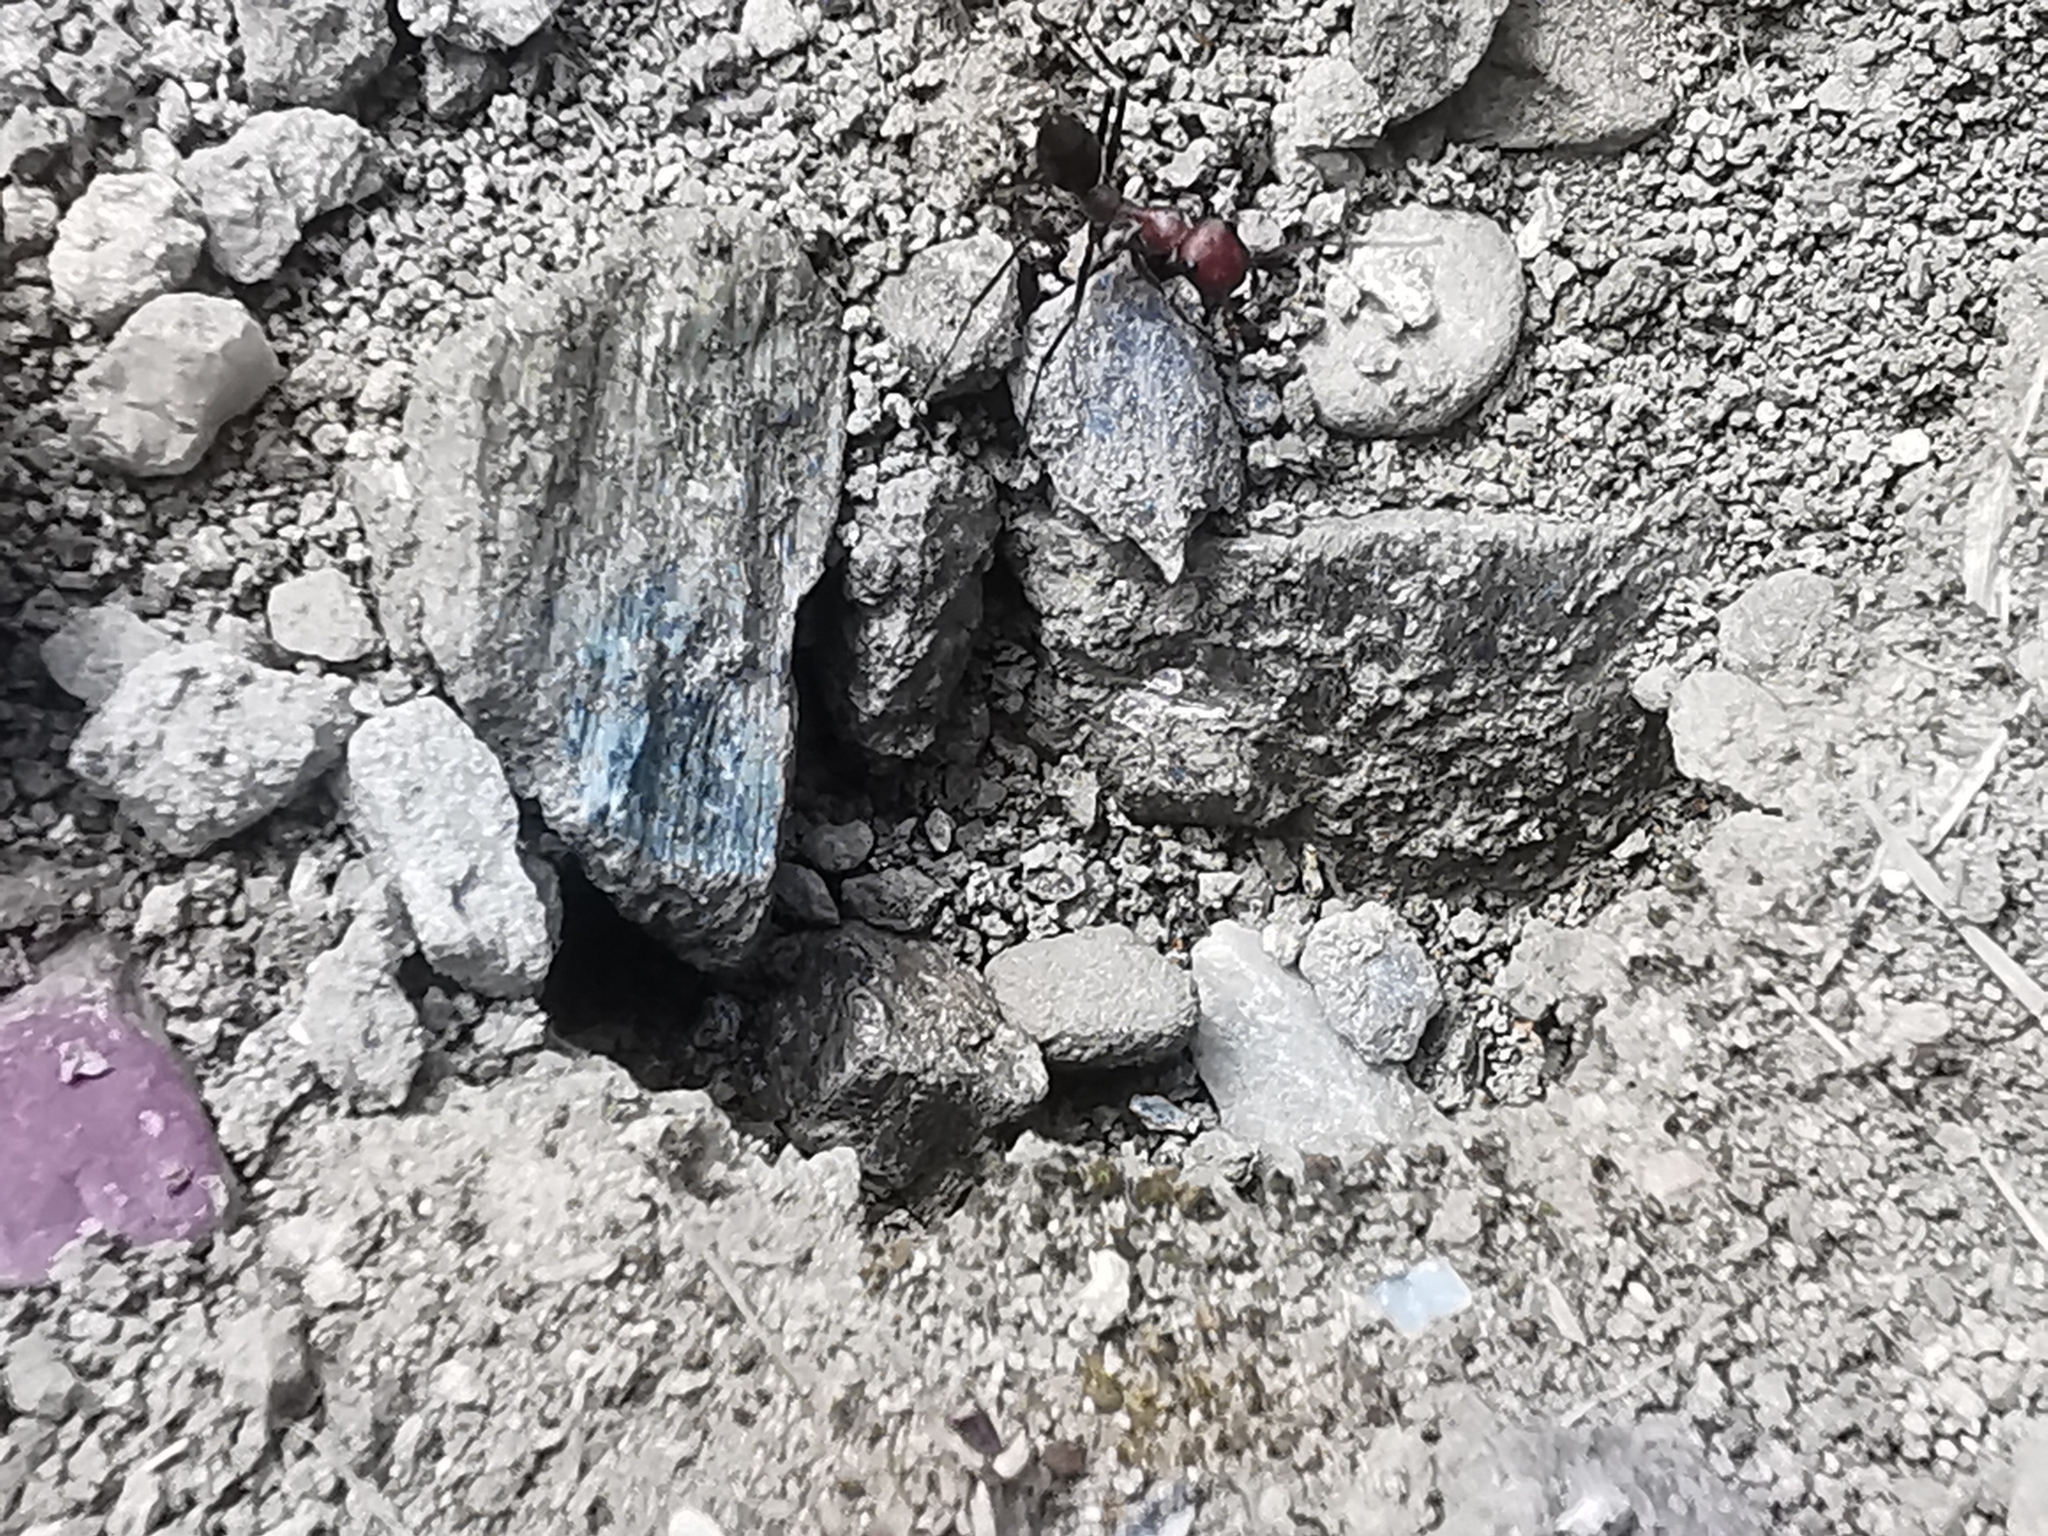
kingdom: Animalia
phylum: Arthropoda
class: Insecta
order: Hymenoptera
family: Formicidae
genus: Cataglyphis
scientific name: Cataglyphis nodus
